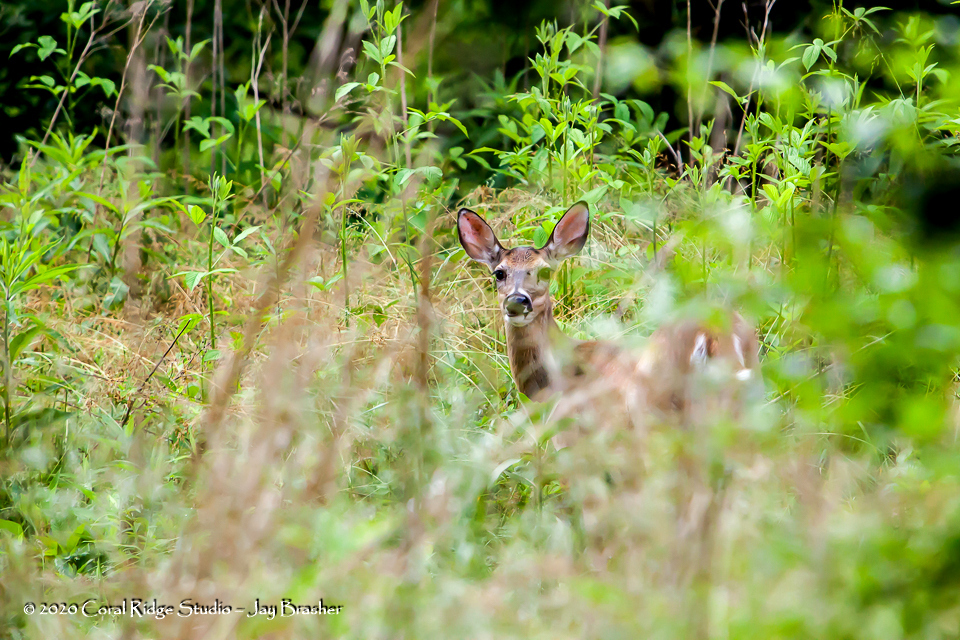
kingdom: Animalia
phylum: Chordata
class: Mammalia
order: Artiodactyla
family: Cervidae
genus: Odocoileus
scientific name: Odocoileus virginianus
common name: White-tailed deer
